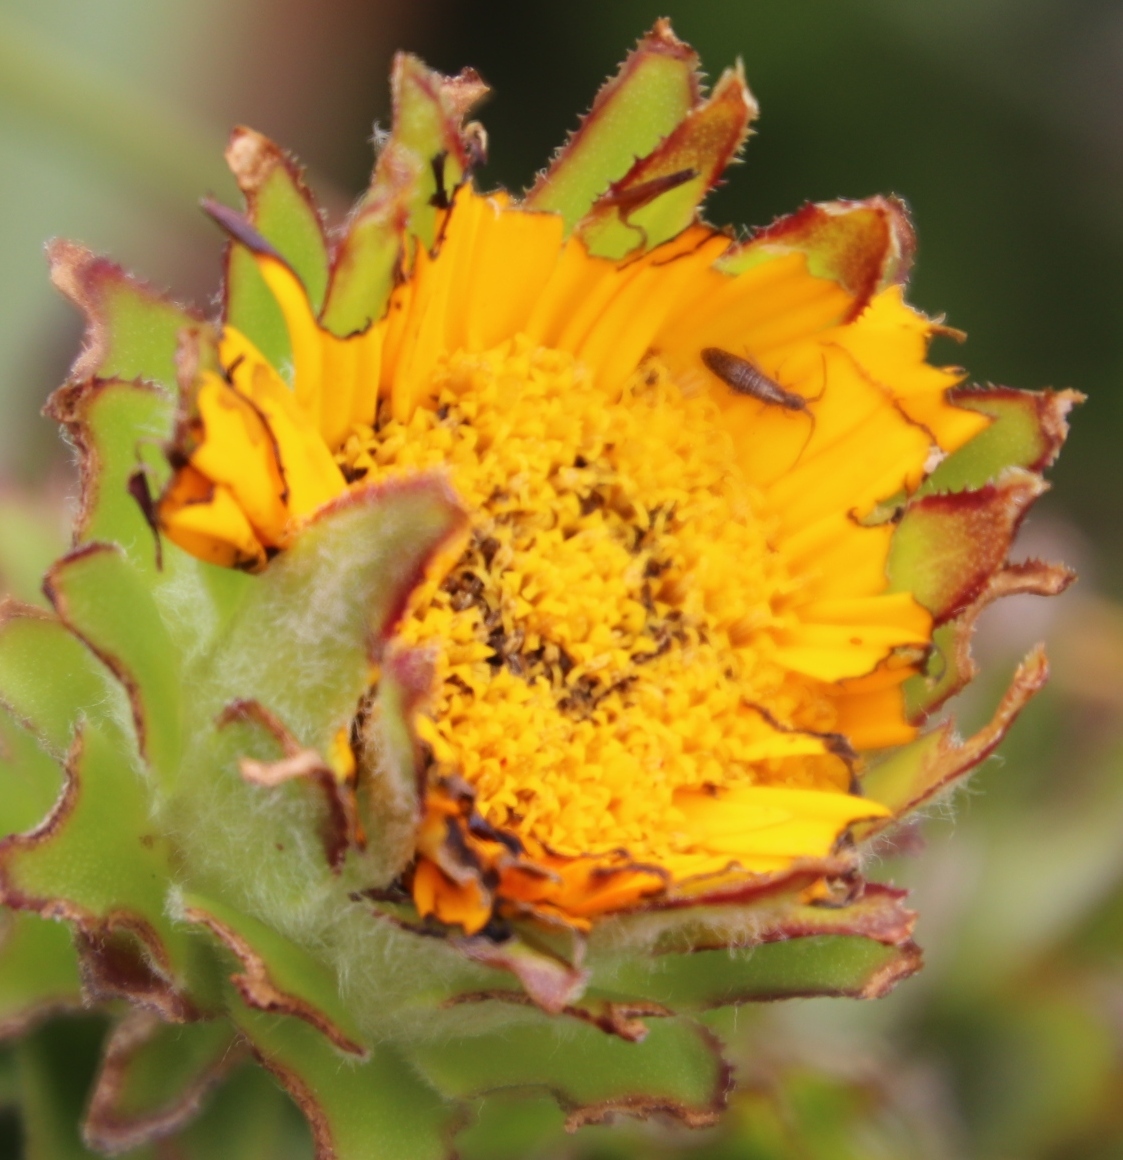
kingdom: Plantae
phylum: Tracheophyta
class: Magnoliopsida
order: Asterales
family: Asteraceae
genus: Oedera
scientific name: Oedera imbricata
